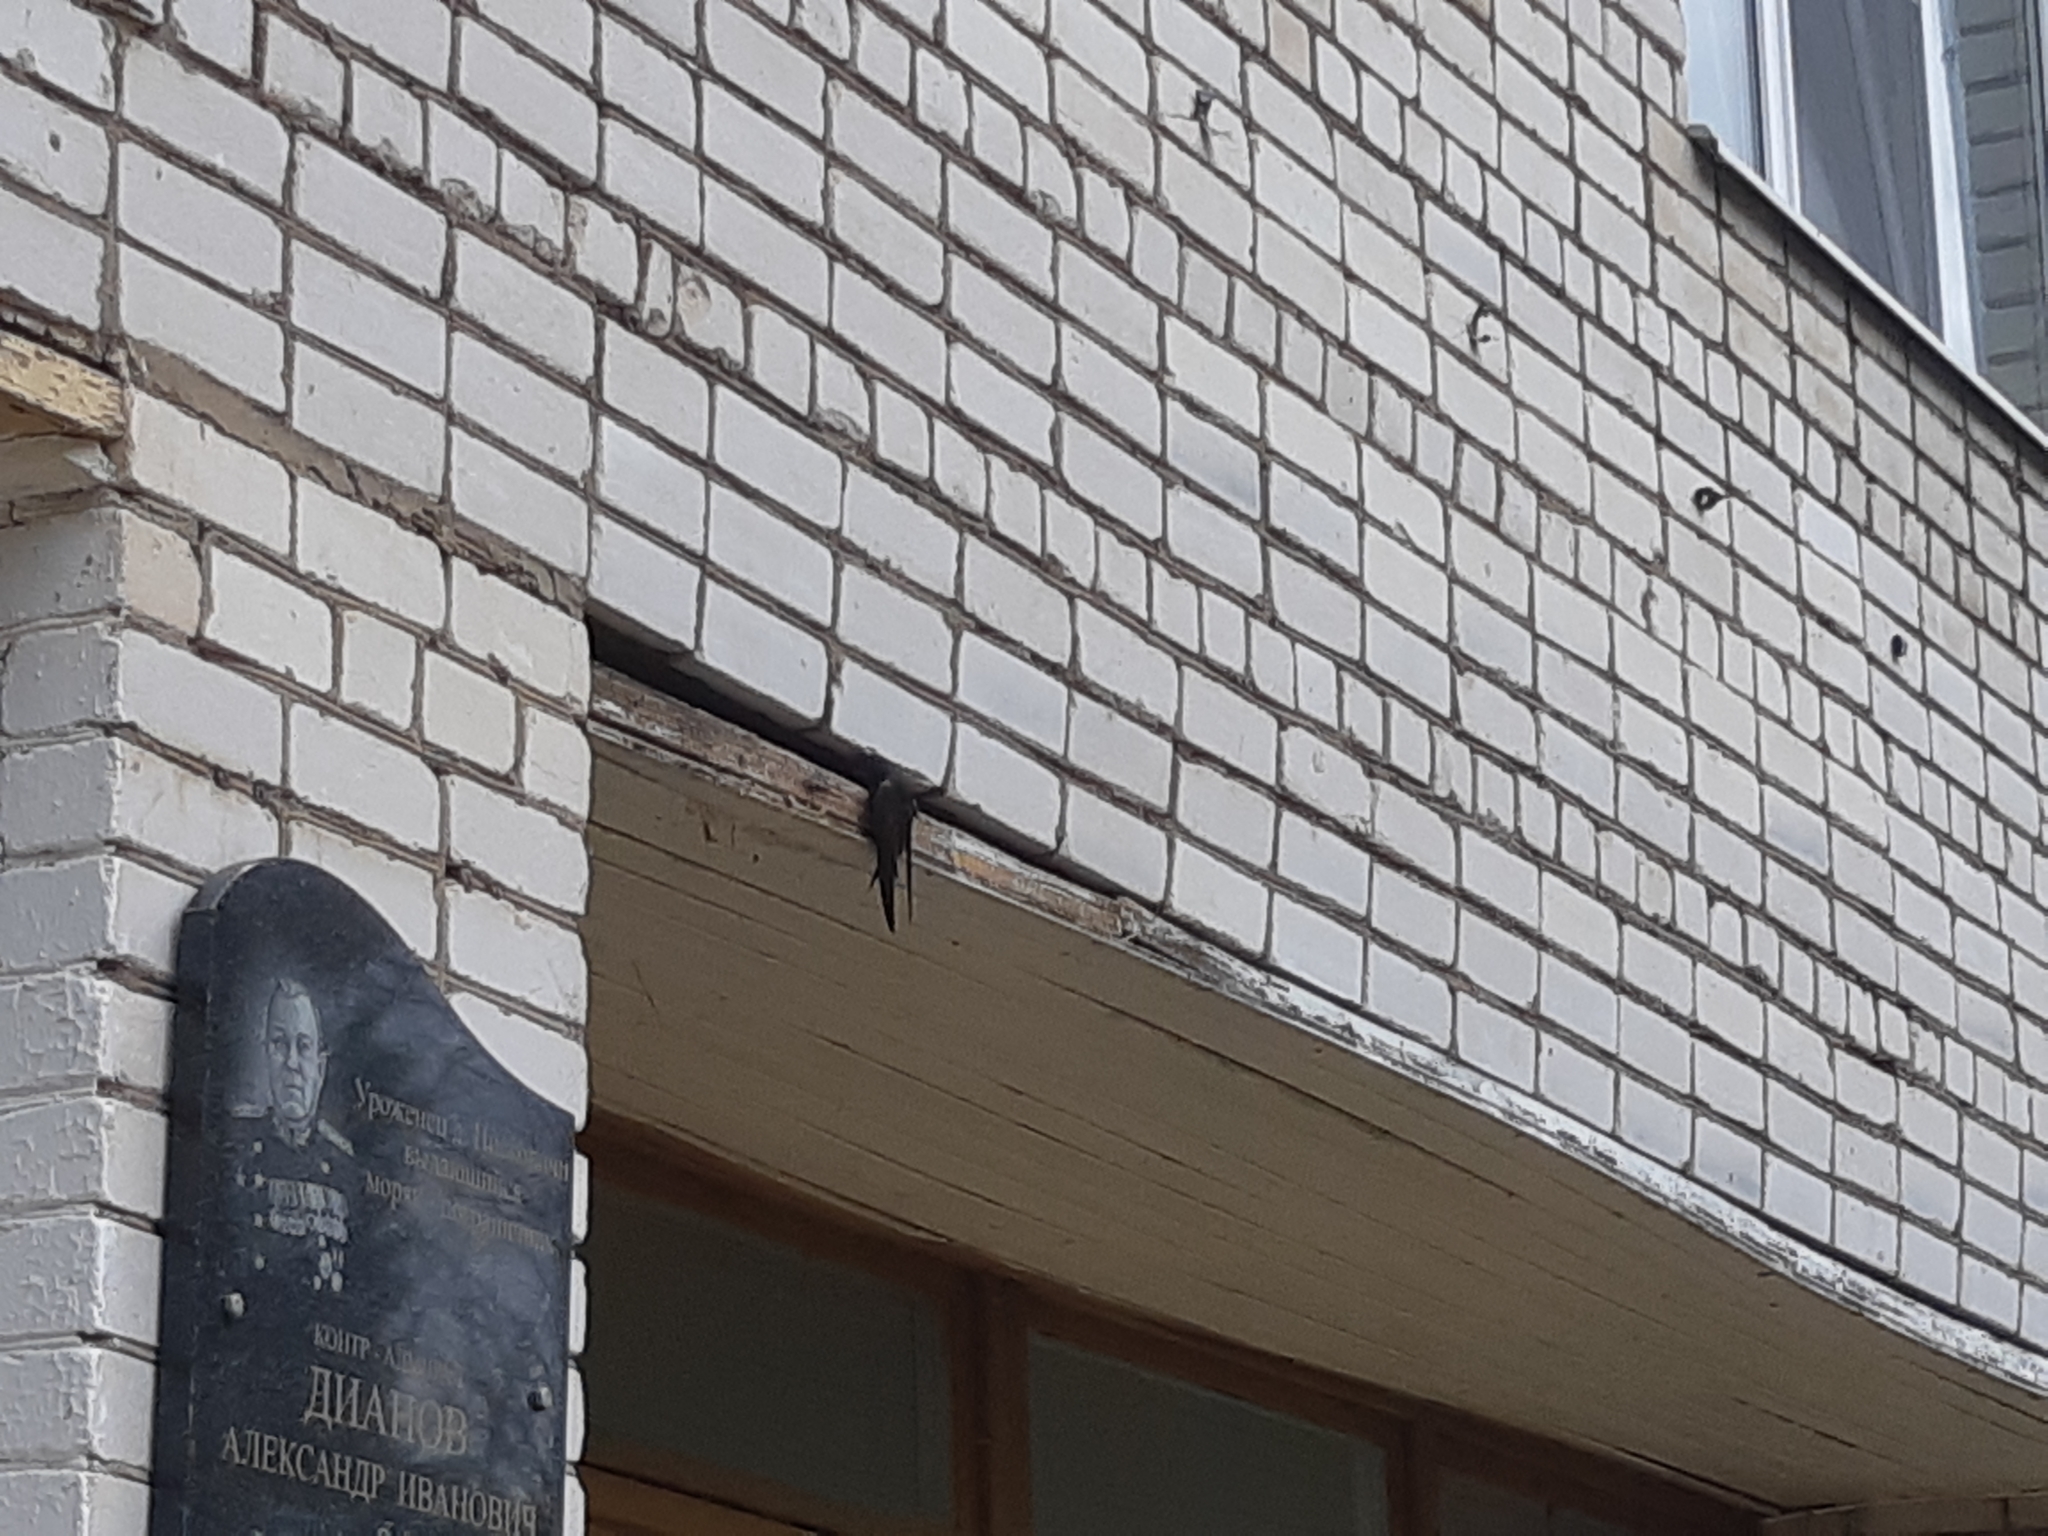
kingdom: Animalia
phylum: Chordata
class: Aves
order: Apodiformes
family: Apodidae
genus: Apus
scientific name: Apus apus
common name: Common swift
